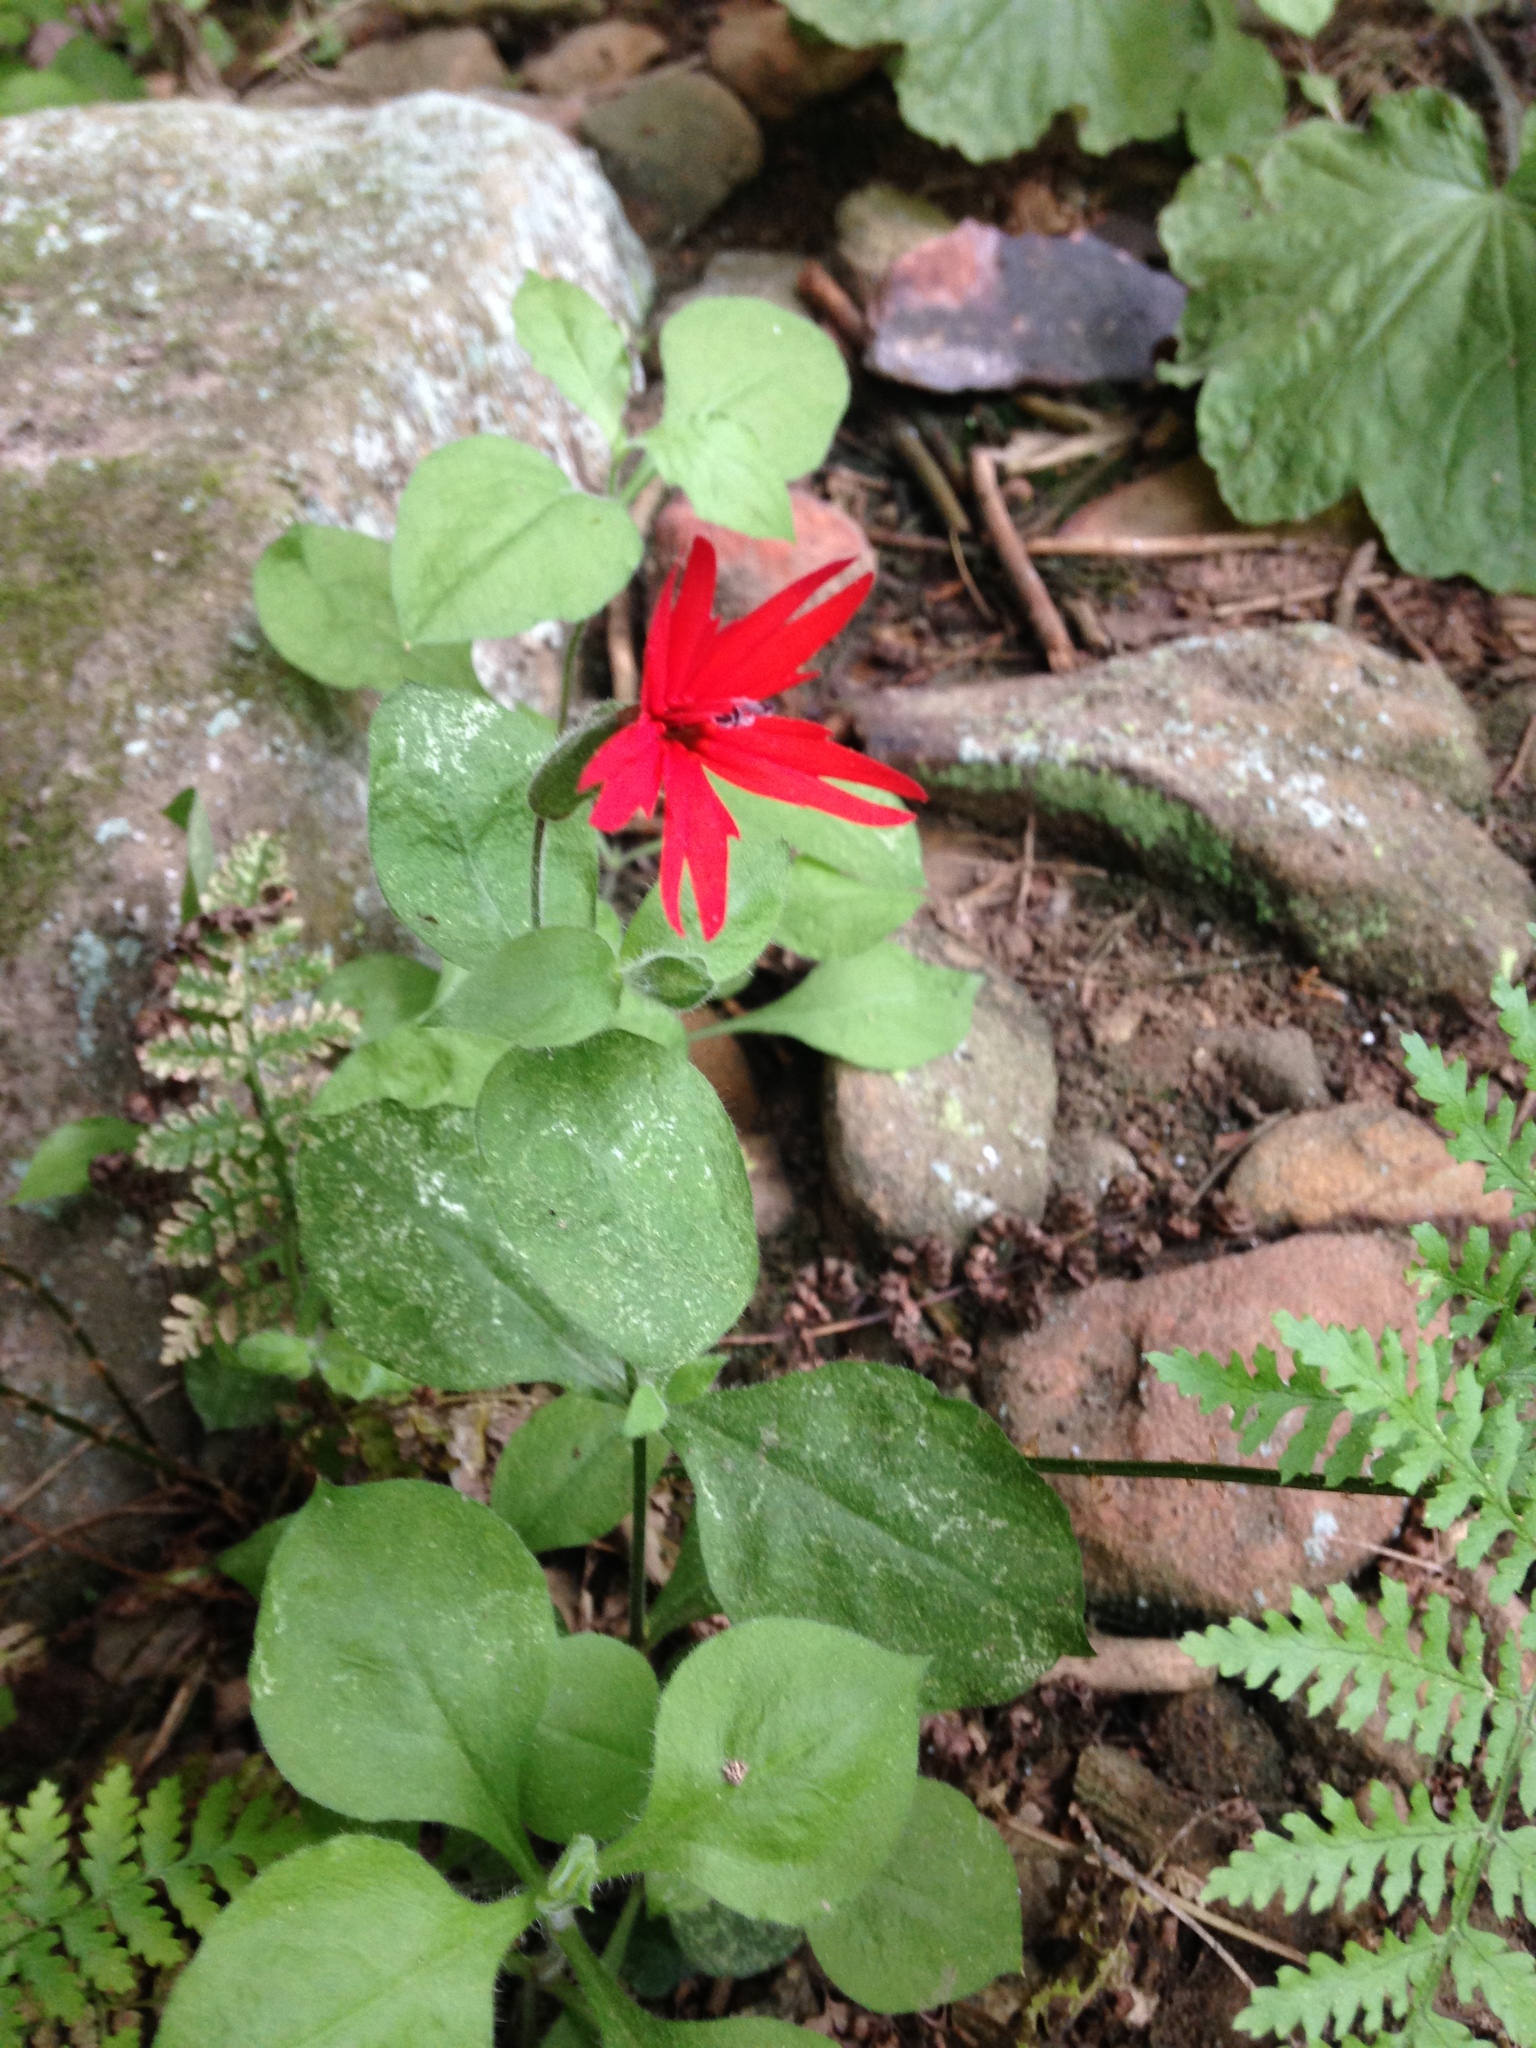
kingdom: Plantae
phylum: Tracheophyta
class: Magnoliopsida
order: Caryophyllales
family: Caryophyllaceae
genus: Silene
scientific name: Silene rotundifolia
